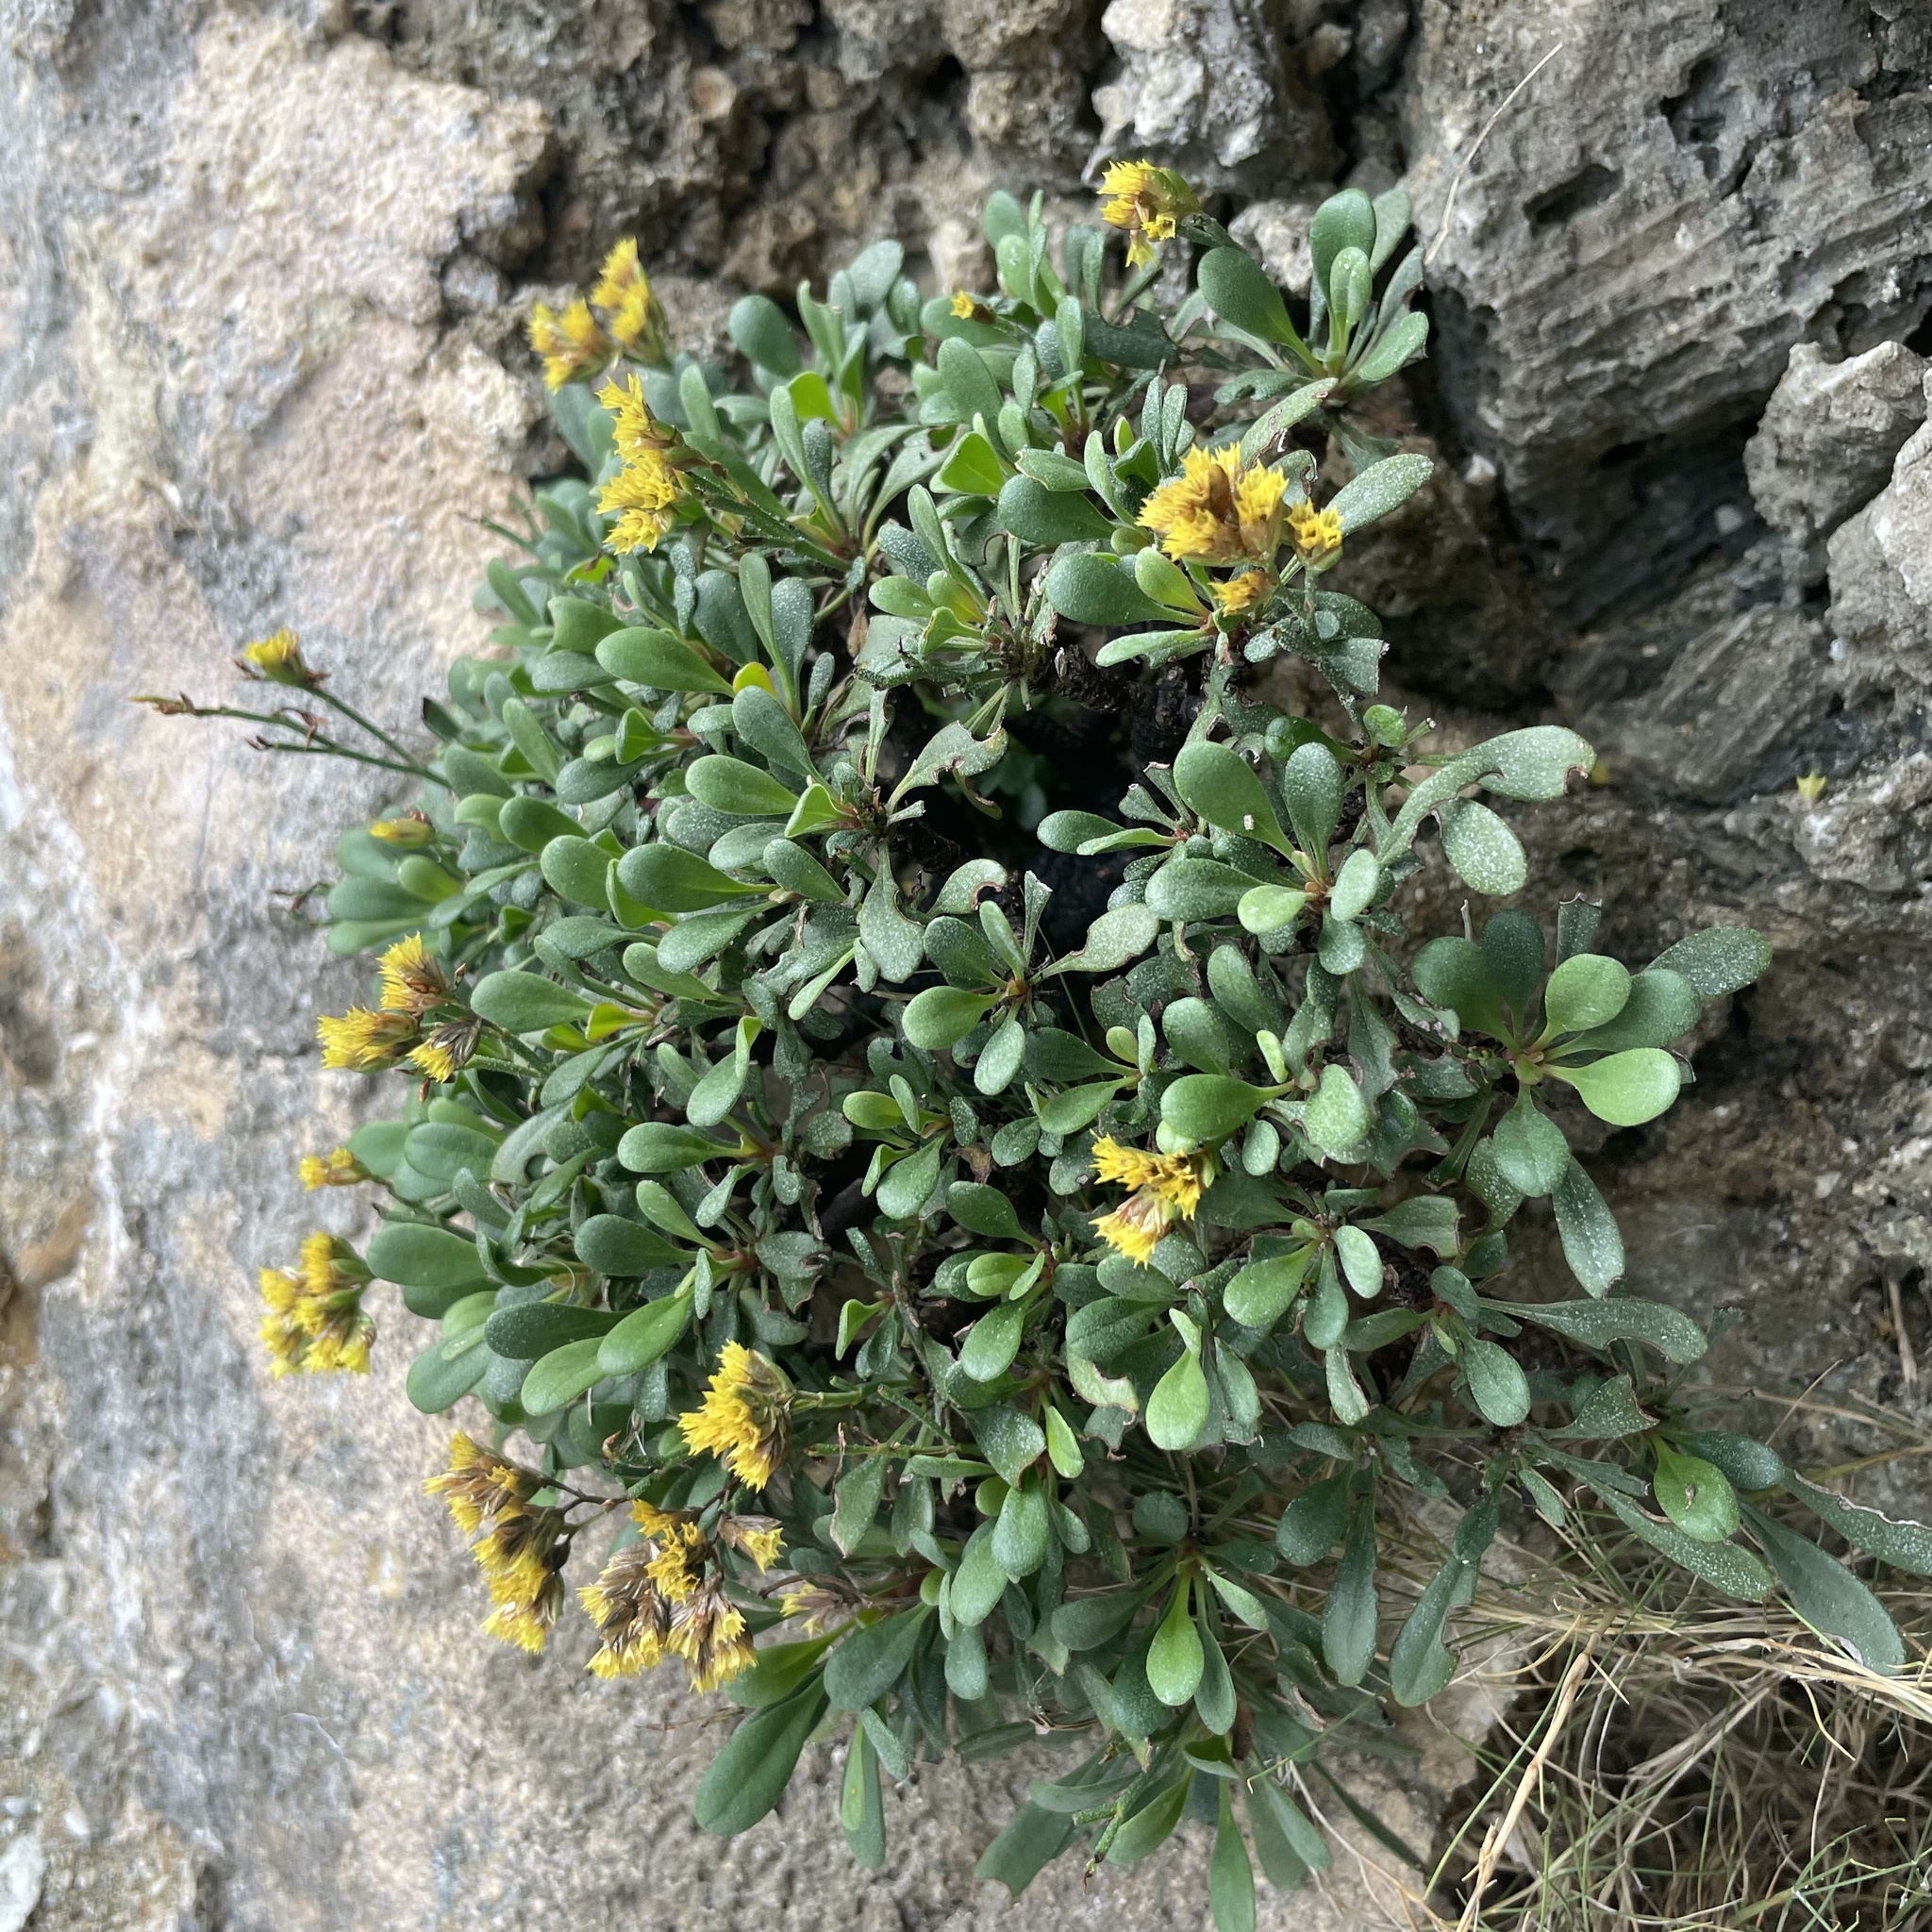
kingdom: Plantae
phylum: Tracheophyta
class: Magnoliopsida
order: Caryophyllales
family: Plumbaginaceae
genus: Limonium
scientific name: Limonium wrightii
